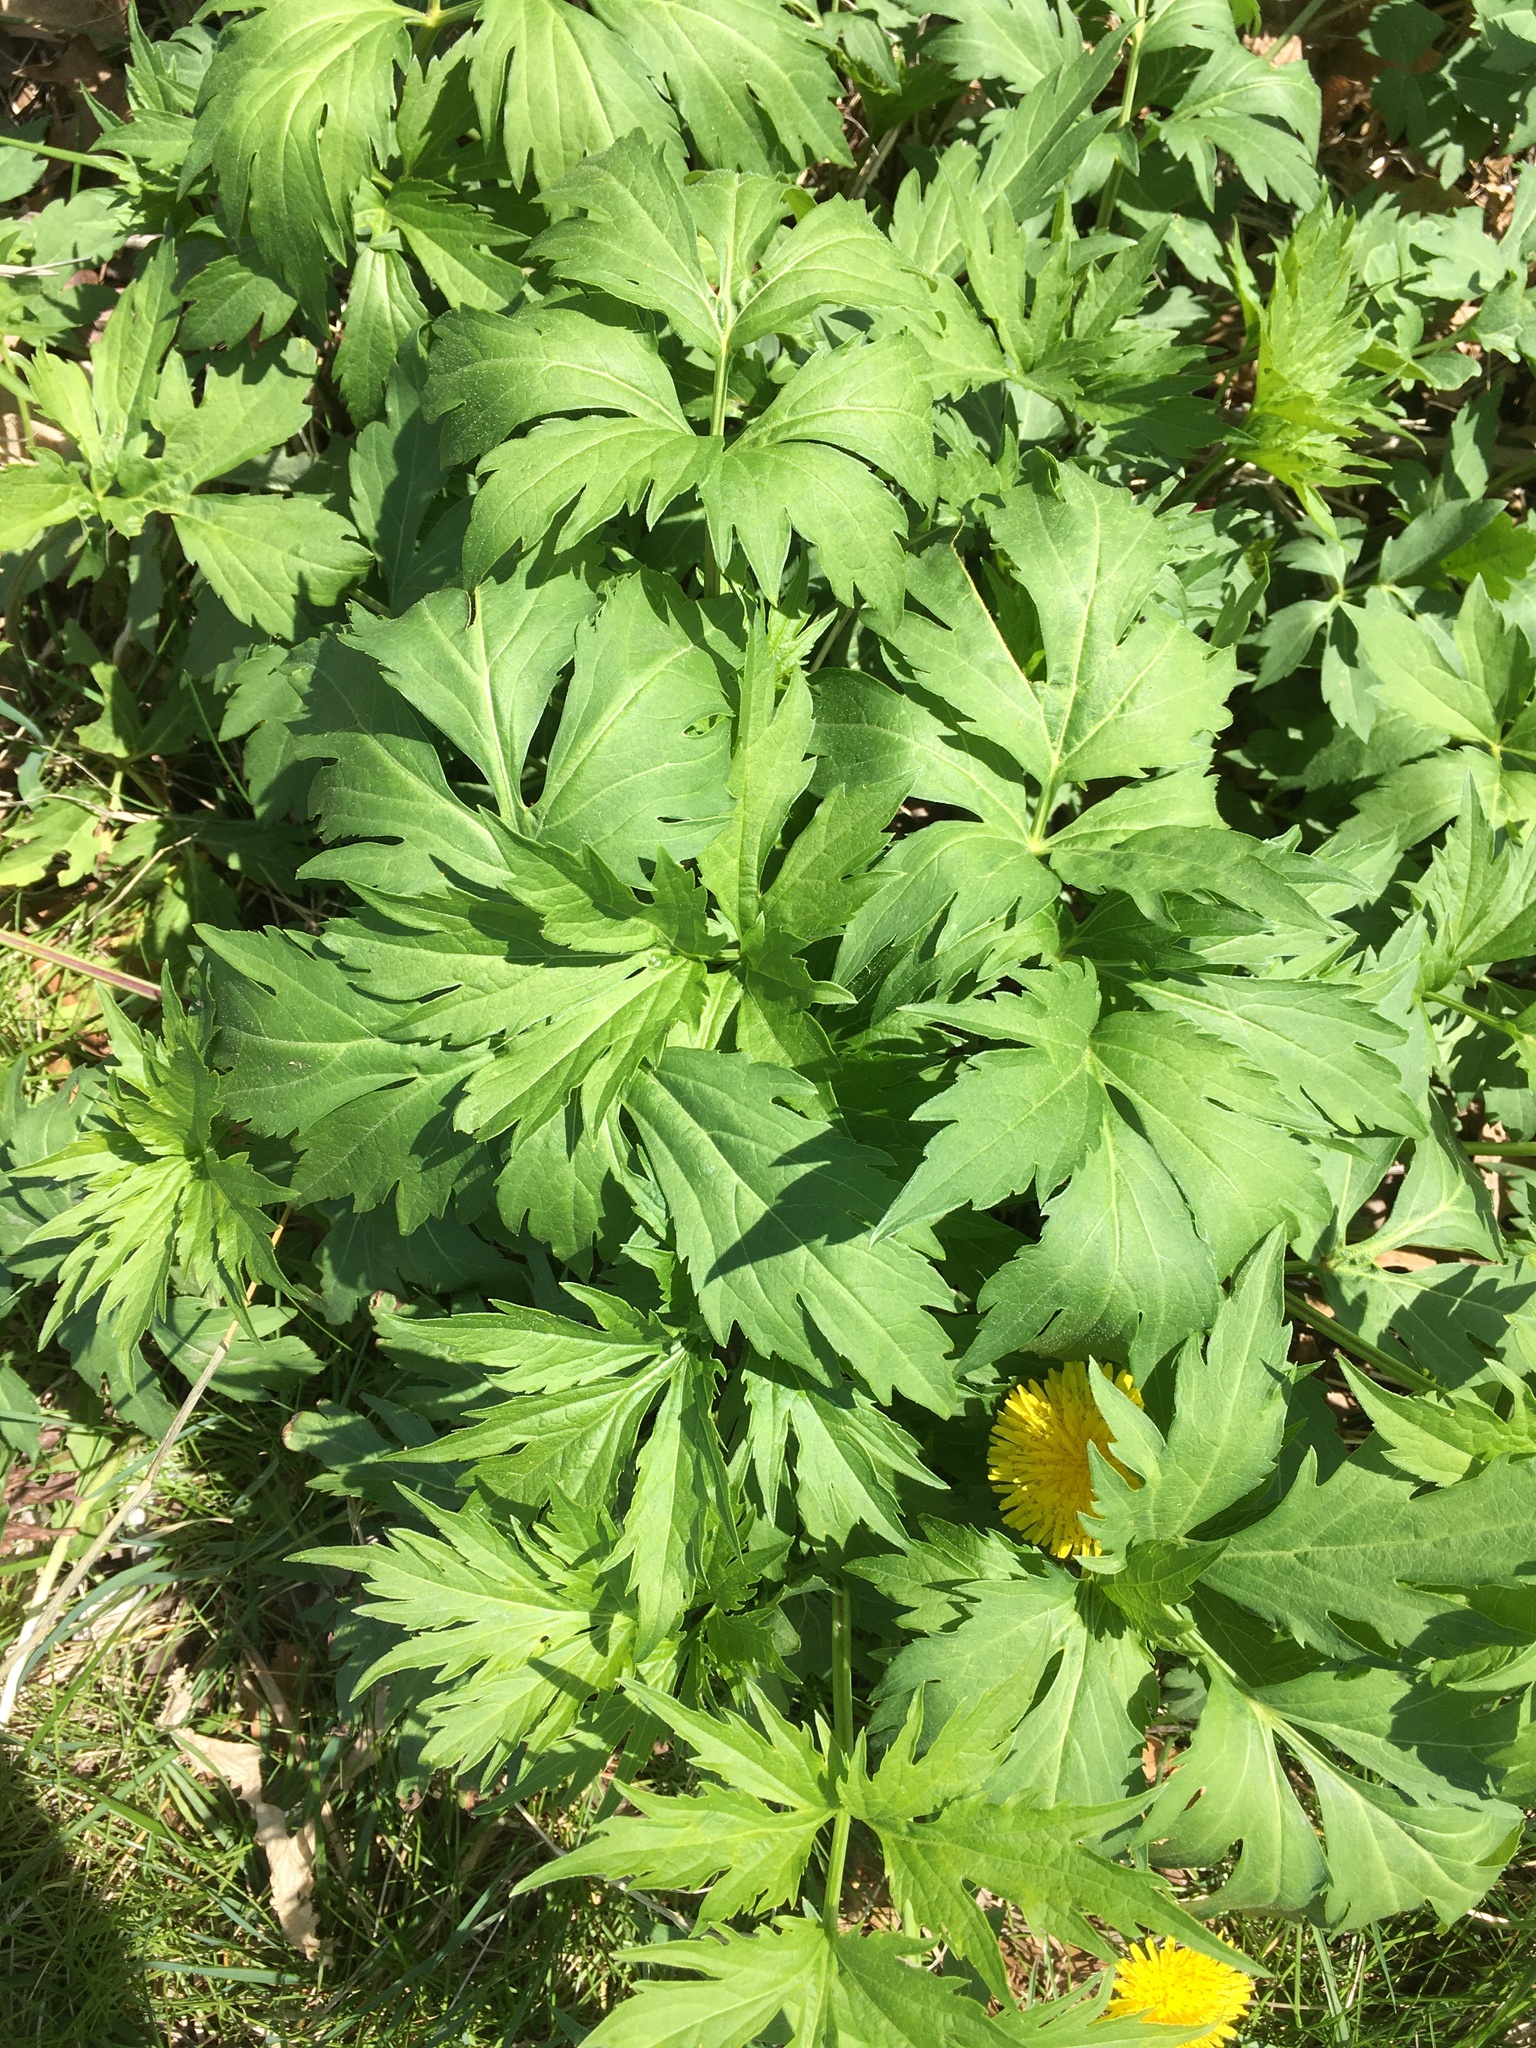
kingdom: Plantae
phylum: Tracheophyta
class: Magnoliopsida
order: Asterales
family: Asteraceae
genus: Rudbeckia
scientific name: Rudbeckia laciniata
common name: Coneflower
